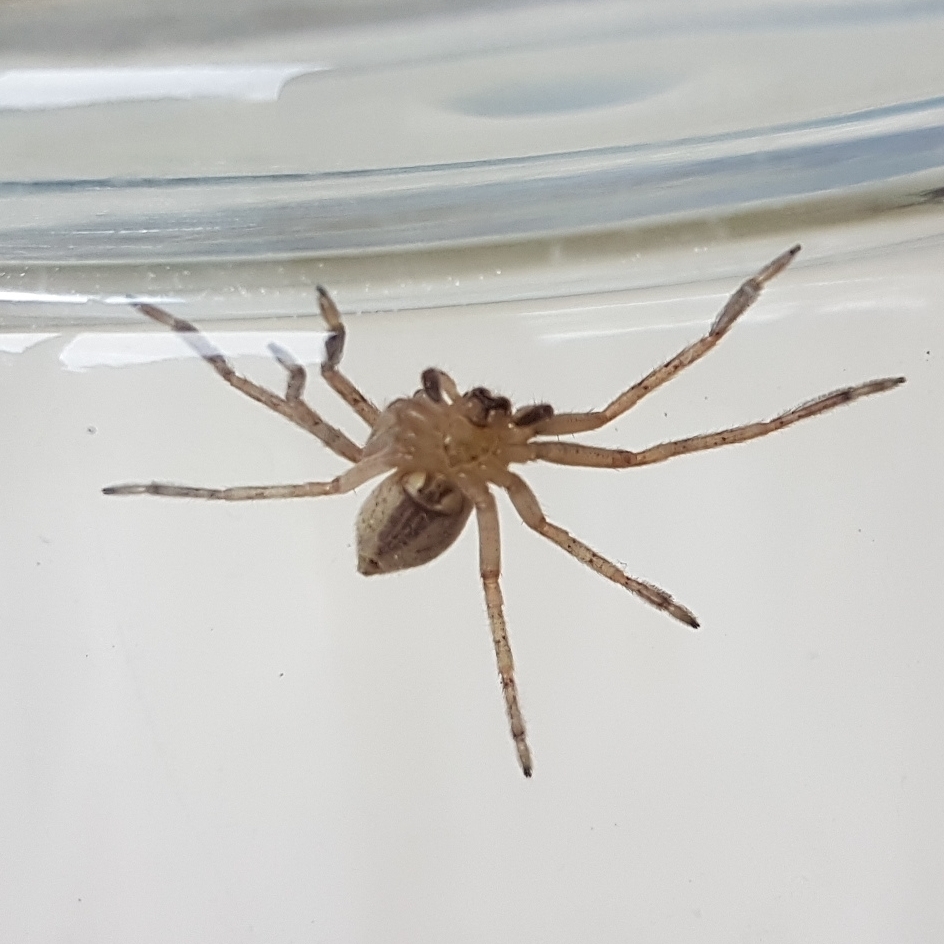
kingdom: Animalia
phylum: Arthropoda
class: Arachnida
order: Araneae
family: Sparassidae
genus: Olios
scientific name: Olios argelasius
